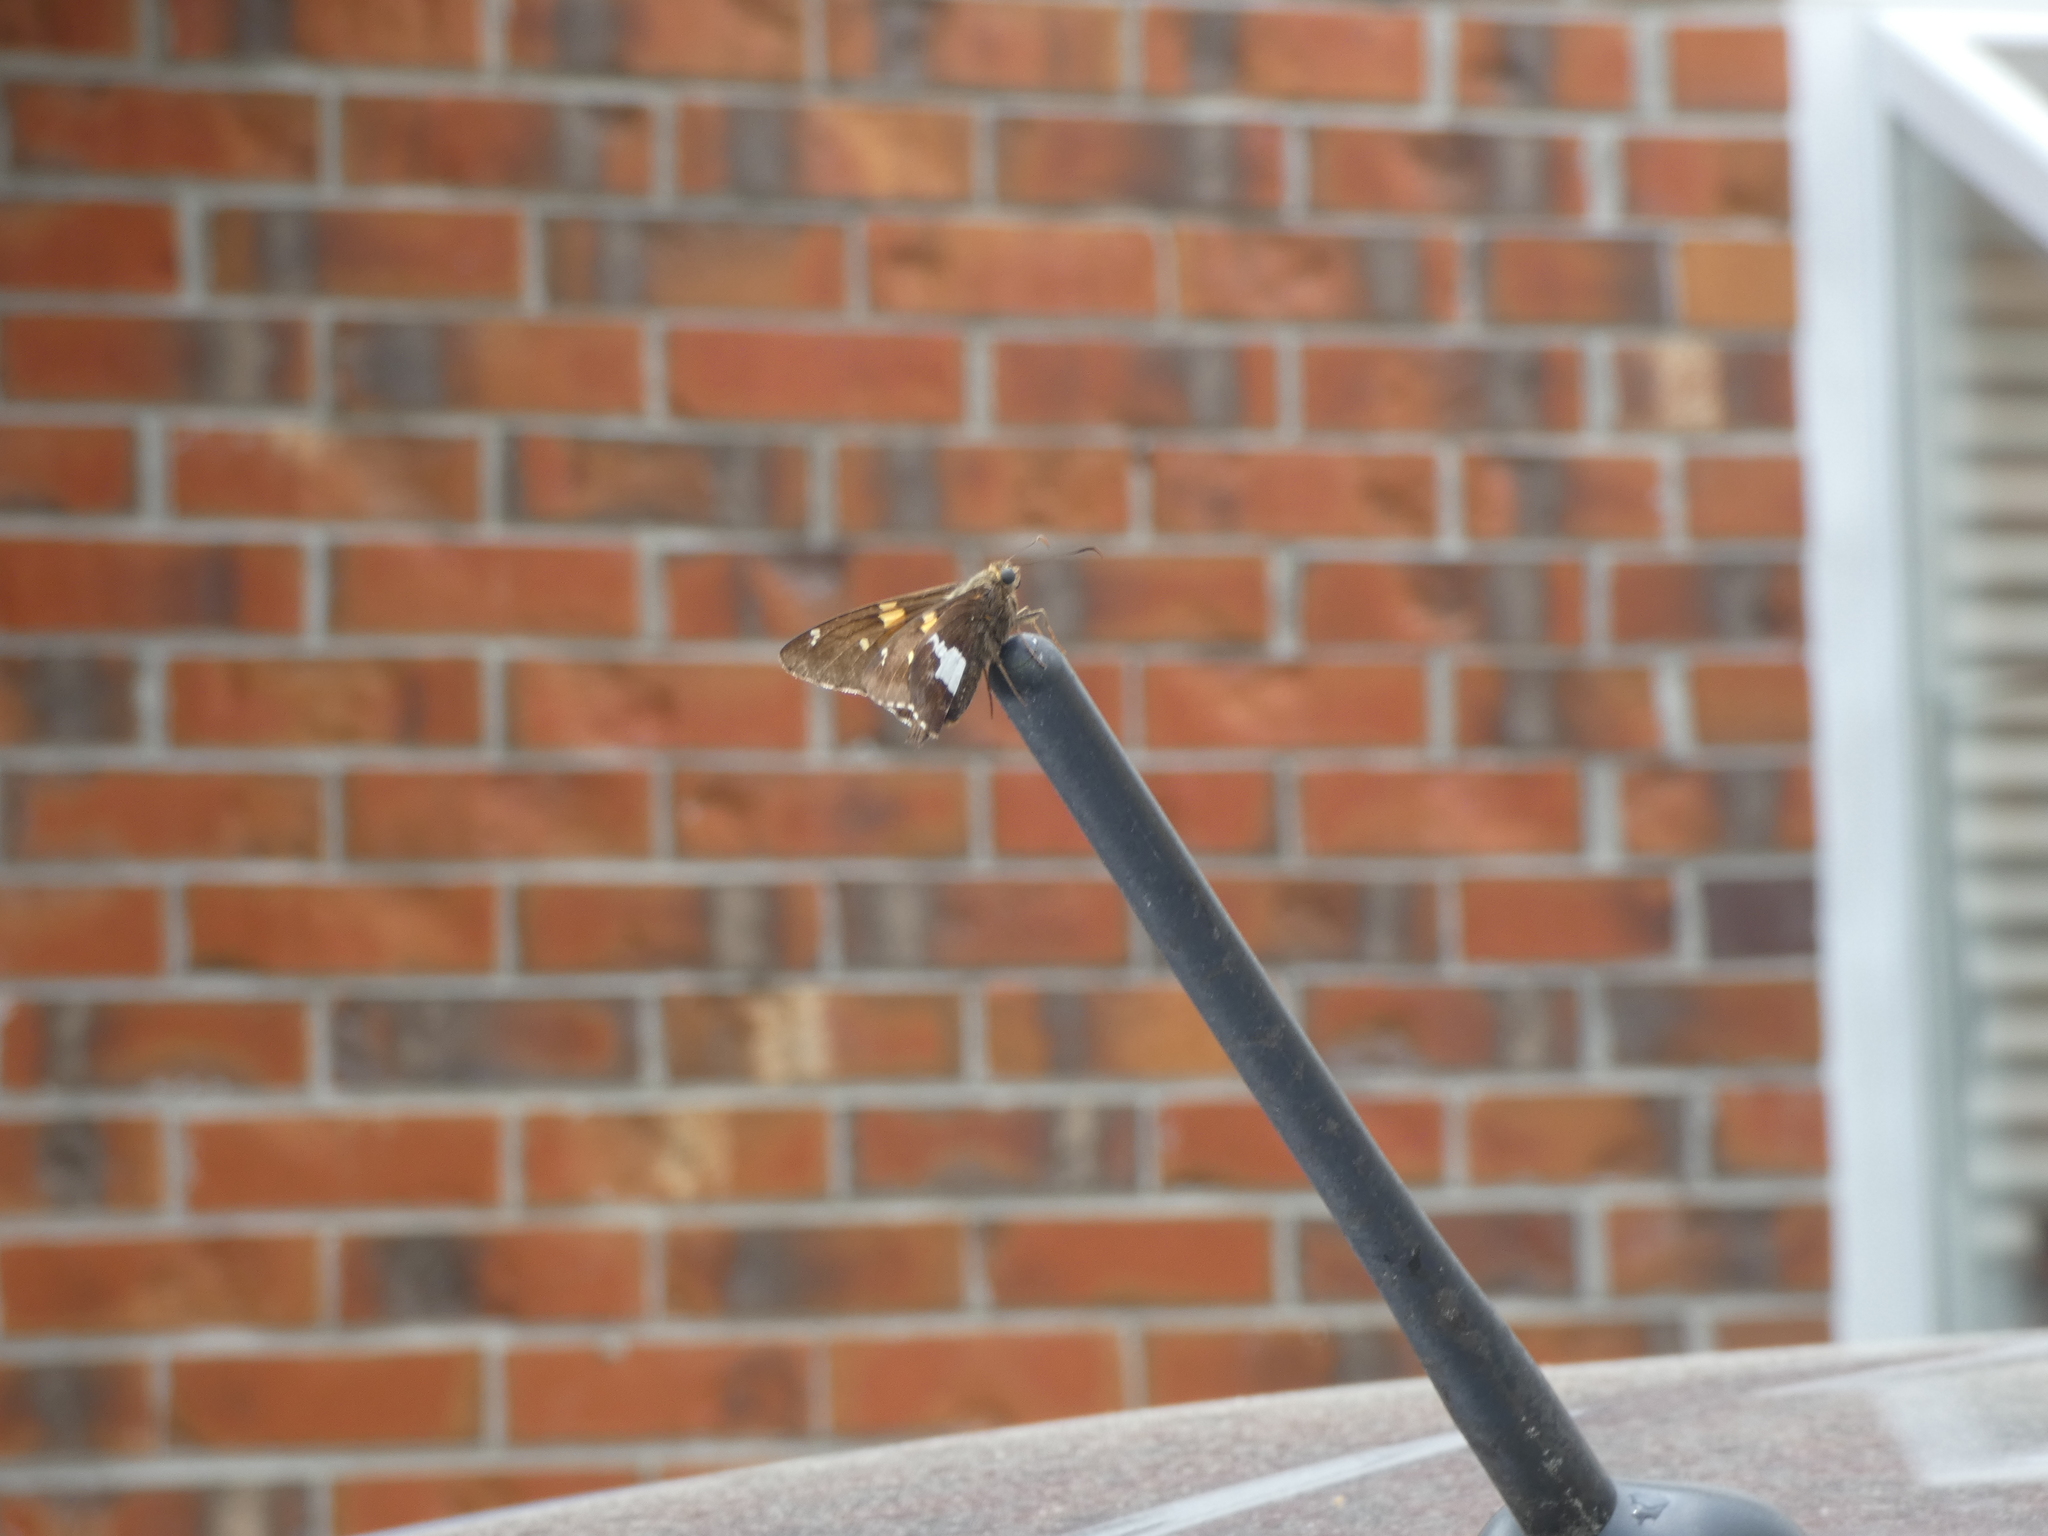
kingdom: Animalia
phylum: Arthropoda
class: Insecta
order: Lepidoptera
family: Hesperiidae
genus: Epargyreus
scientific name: Epargyreus clarus
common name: Silver-spotted skipper
